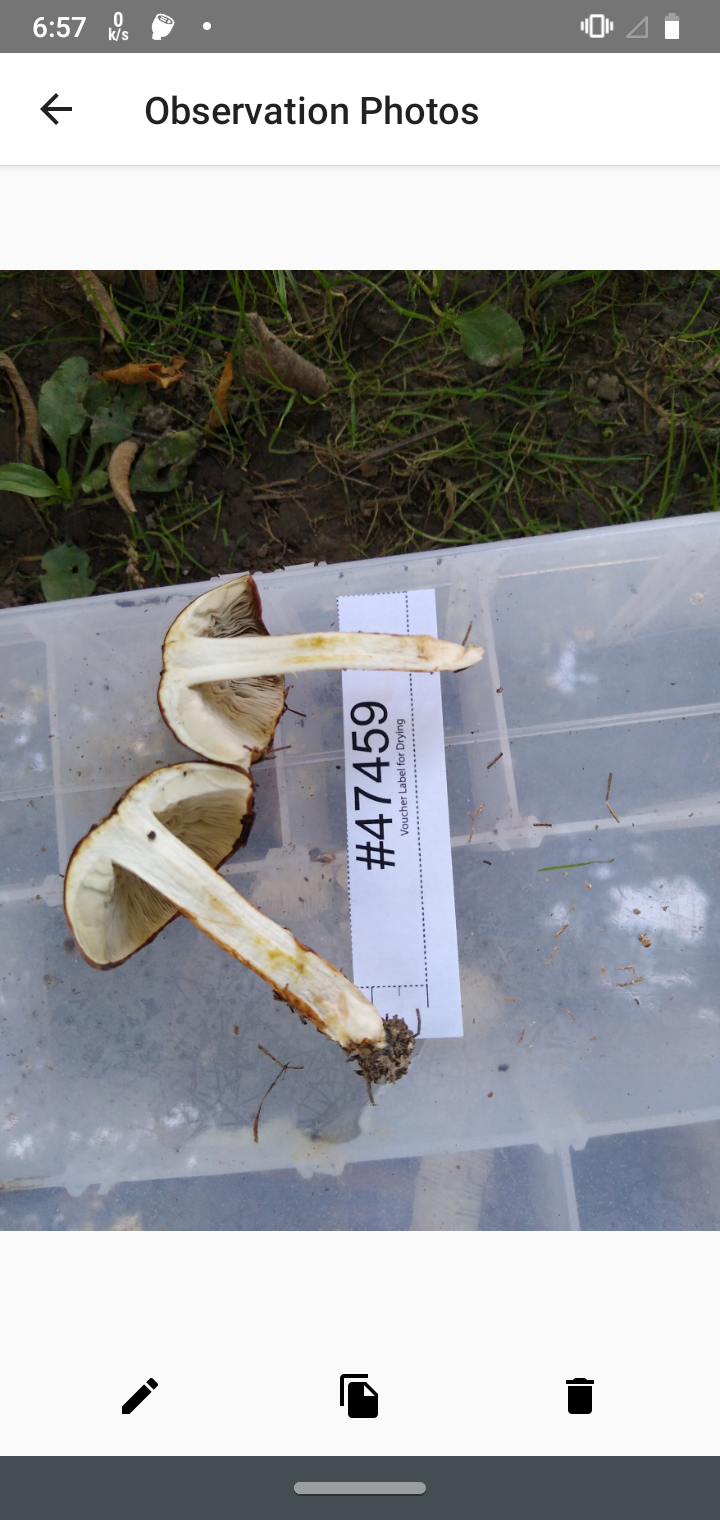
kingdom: Fungi
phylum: Basidiomycota
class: Agaricomycetes
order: Agaricales
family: Amanitaceae
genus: Limacella
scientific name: Limacella glischra
